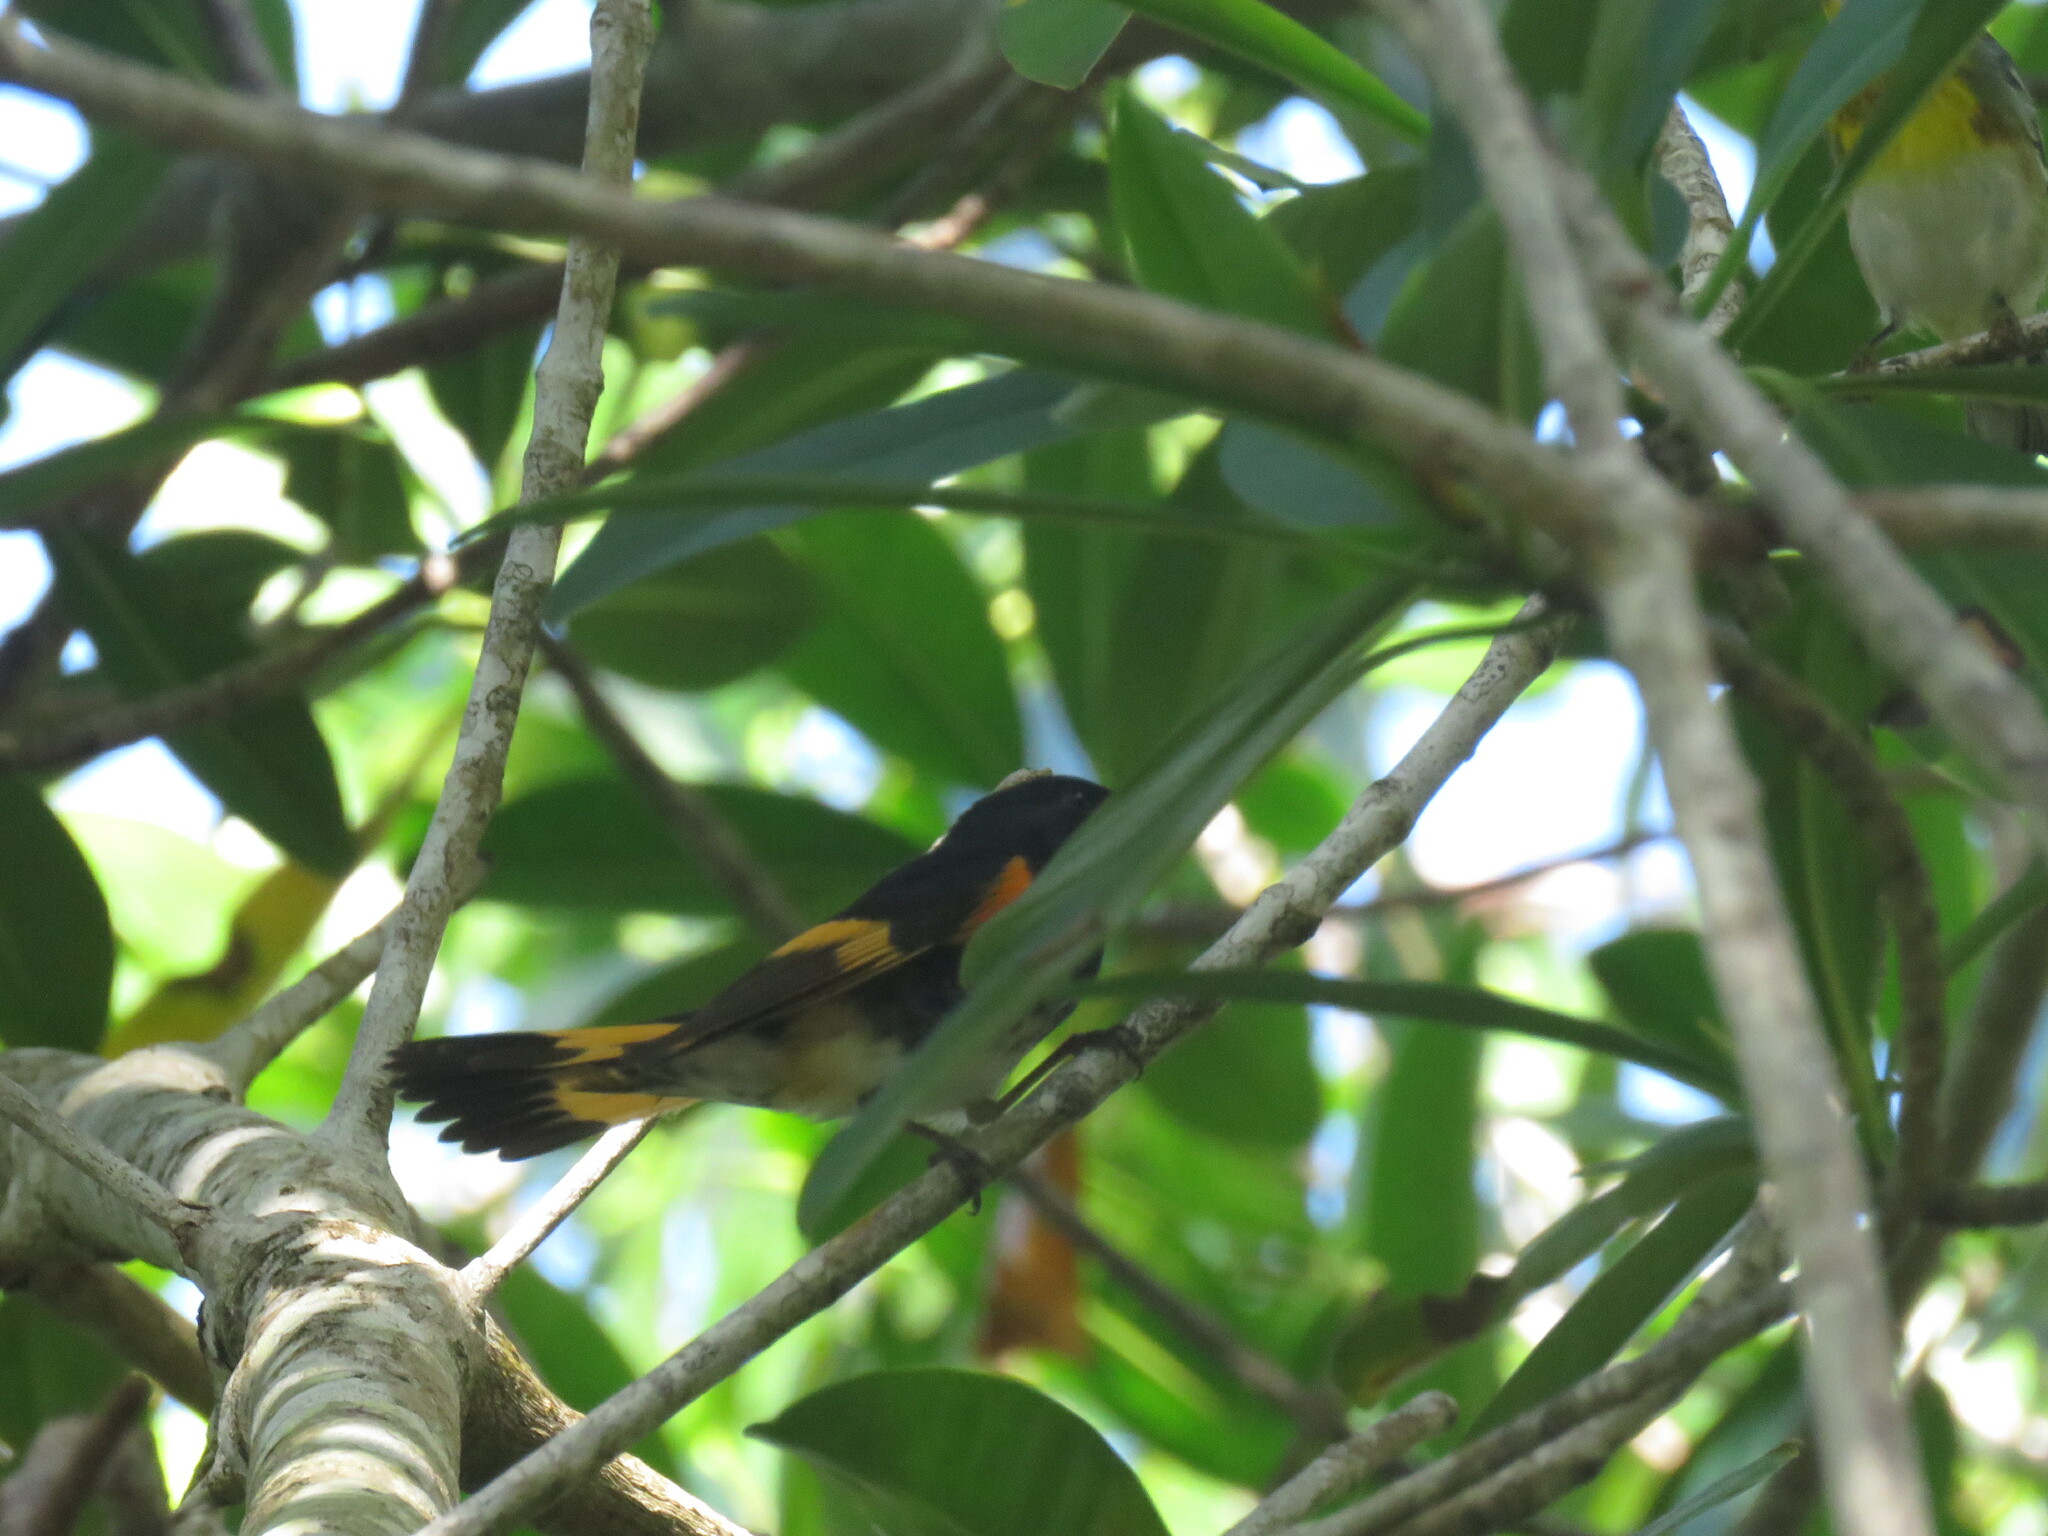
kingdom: Animalia
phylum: Chordata
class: Aves
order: Passeriformes
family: Parulidae
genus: Setophaga
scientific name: Setophaga ruticilla
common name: American redstart
